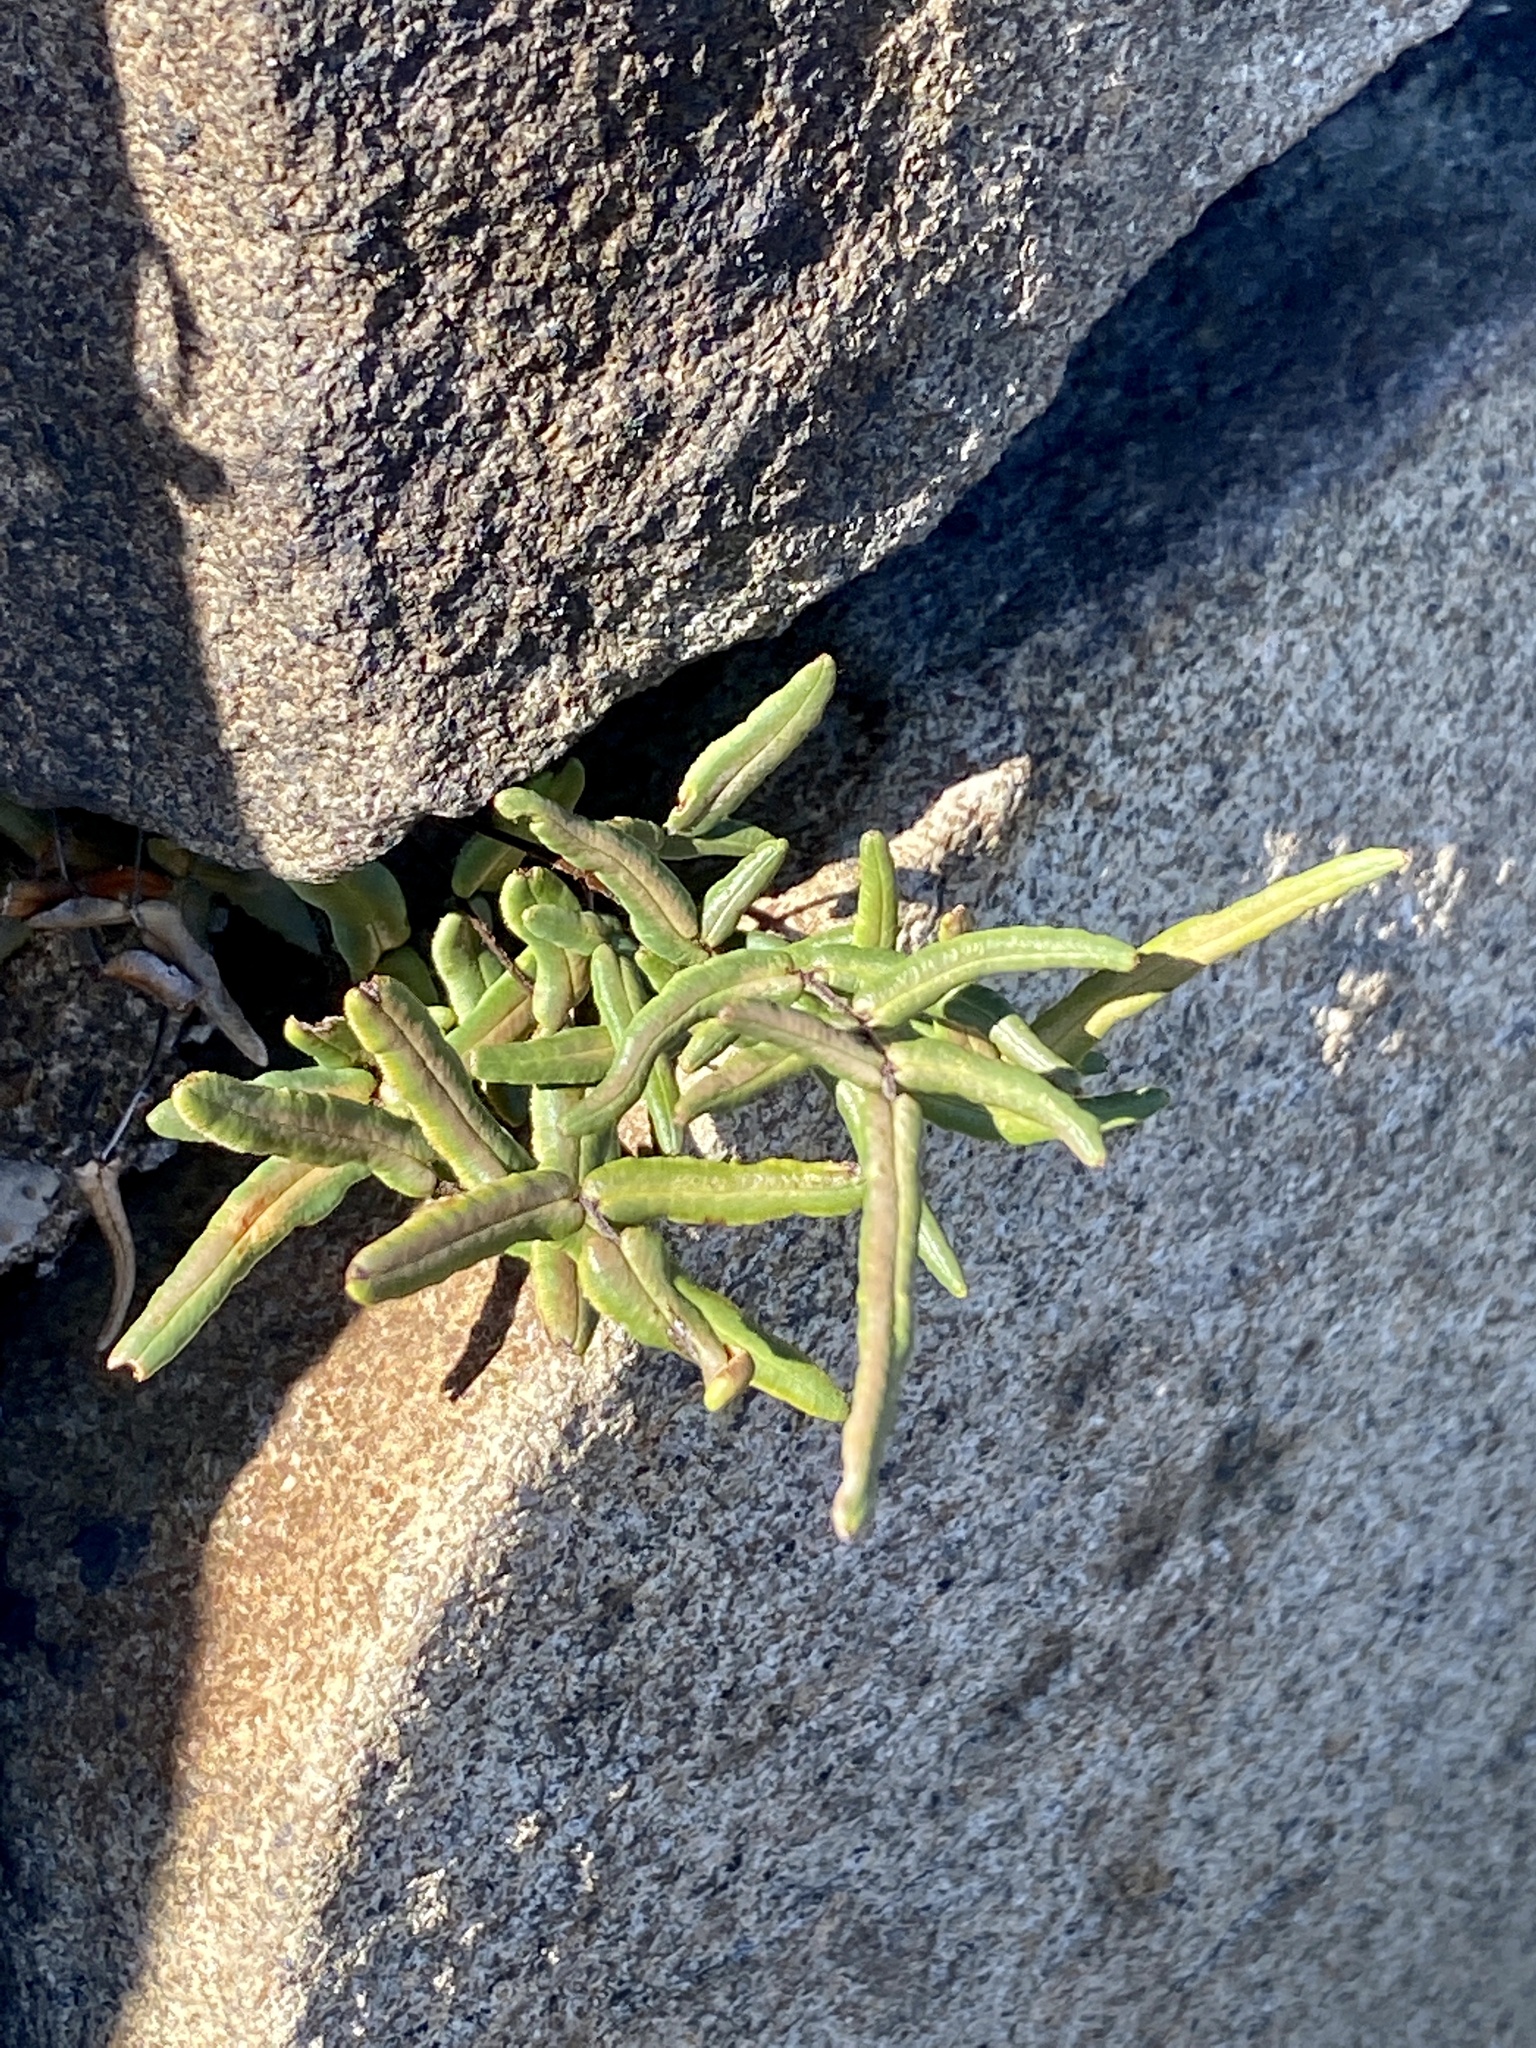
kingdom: Plantae
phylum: Tracheophyta
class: Polypodiopsida
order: Polypodiales
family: Pteridaceae
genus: Pellaea
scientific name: Pellaea atropurpurea
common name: Hairy cliffbrake
